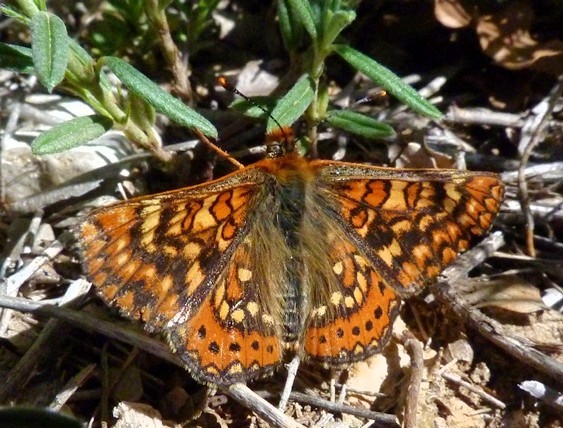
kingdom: Animalia
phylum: Arthropoda
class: Insecta
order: Lepidoptera
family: Nymphalidae
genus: Euphydryas
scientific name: Euphydryas aurinia
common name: Marsh fritillary
